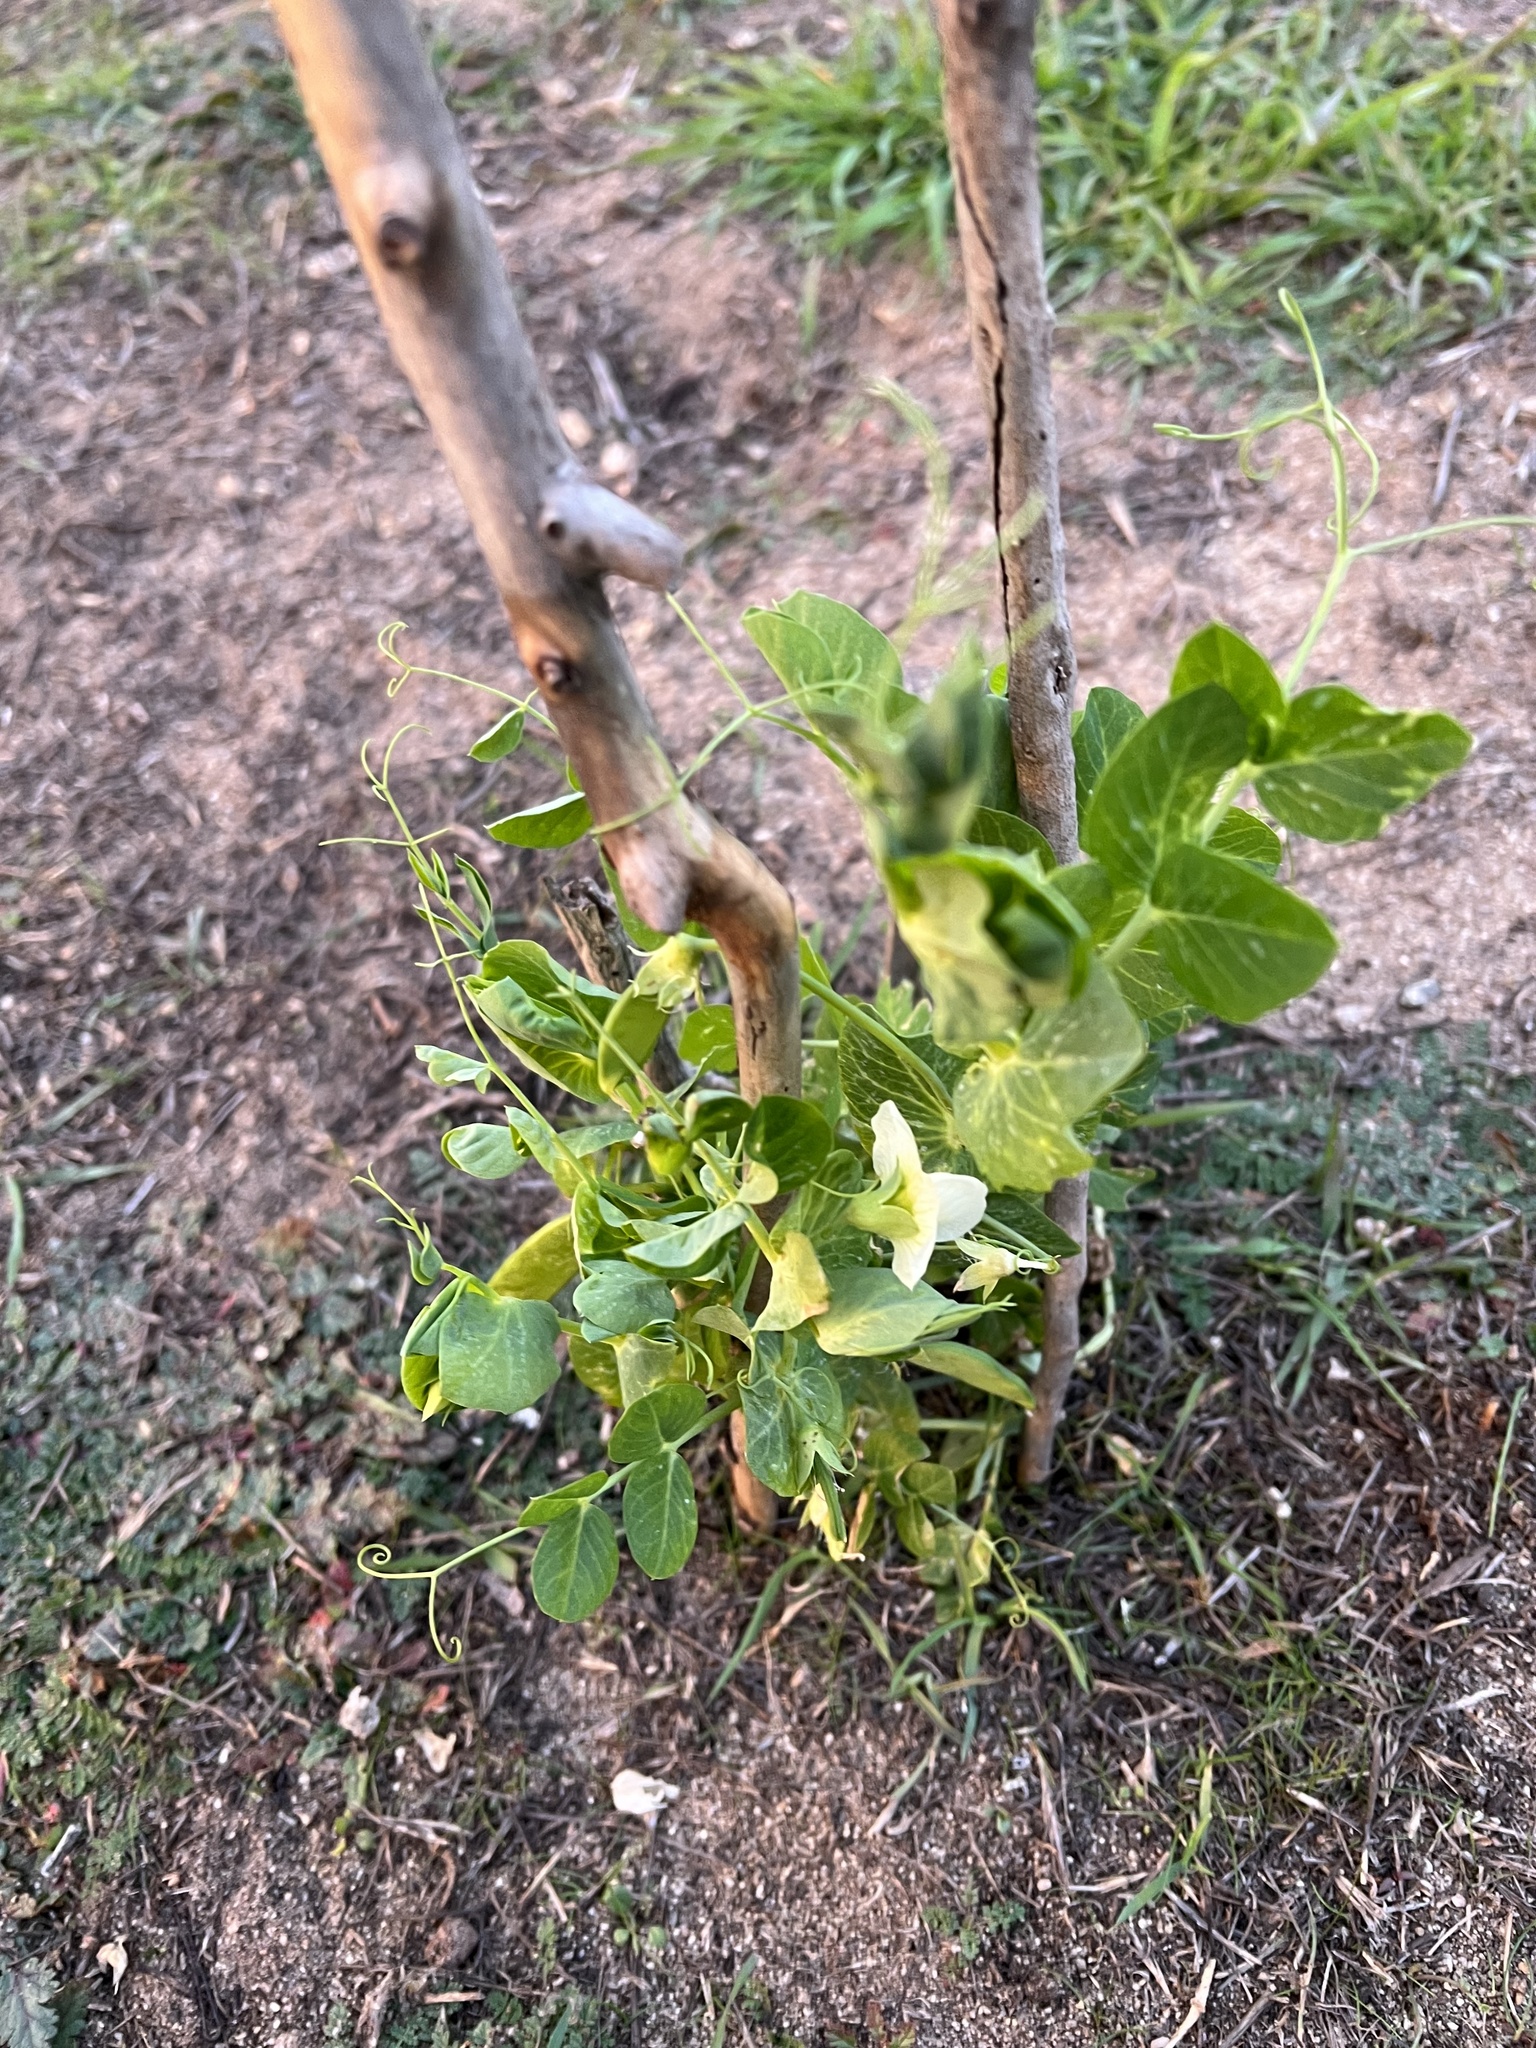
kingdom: Plantae
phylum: Tracheophyta
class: Magnoliopsida
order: Fabales
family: Fabaceae
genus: Lathyrus
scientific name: Lathyrus oleraceus
